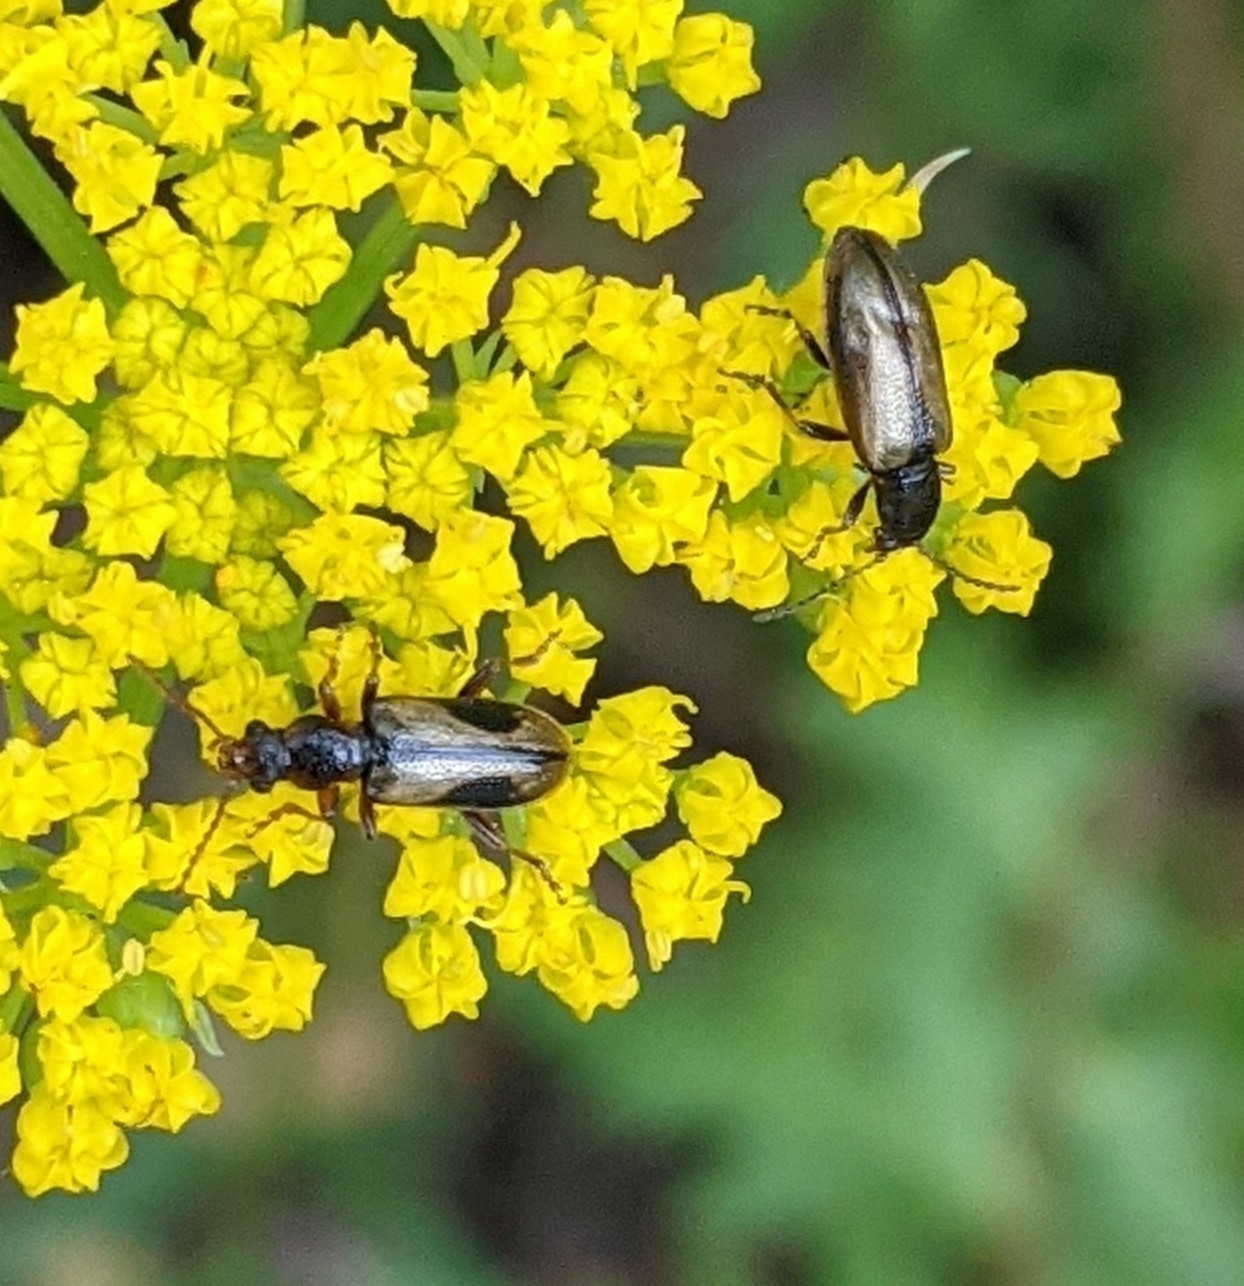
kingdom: Animalia
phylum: Arthropoda
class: Insecta
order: Coleoptera
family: Orsodacnidae
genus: Orsodacne
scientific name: Orsodacne atra
